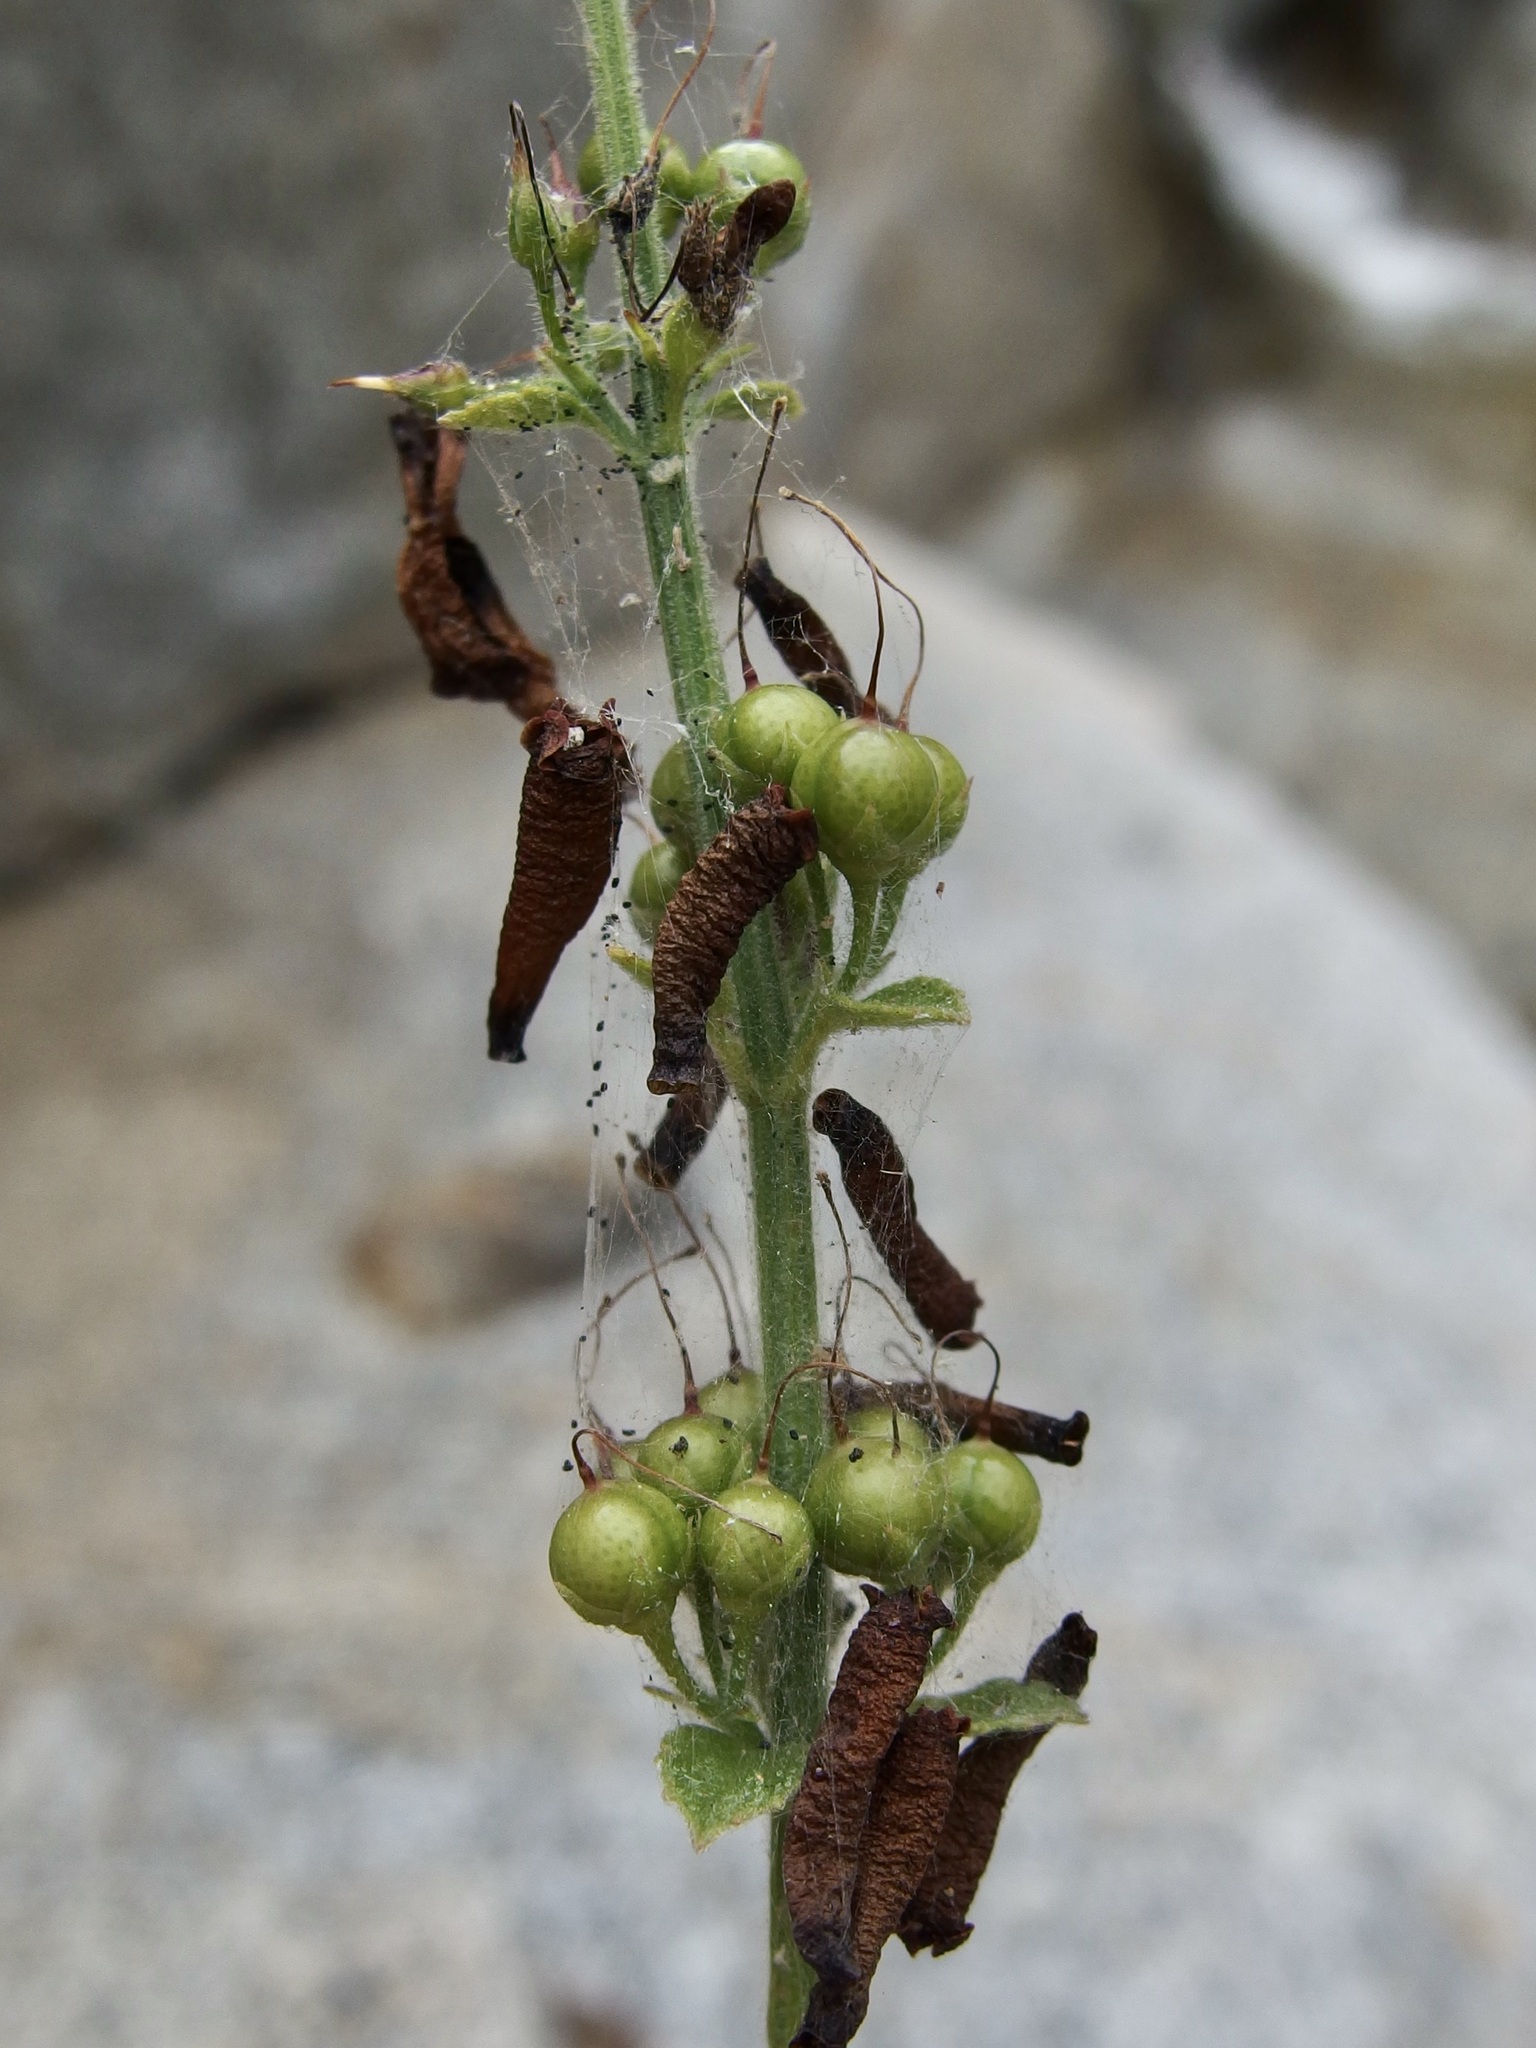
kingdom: Plantae
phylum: Tracheophyta
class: Magnoliopsida
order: Lamiales
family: Plantaginaceae
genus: Russelia
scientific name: Russelia retrorsa
